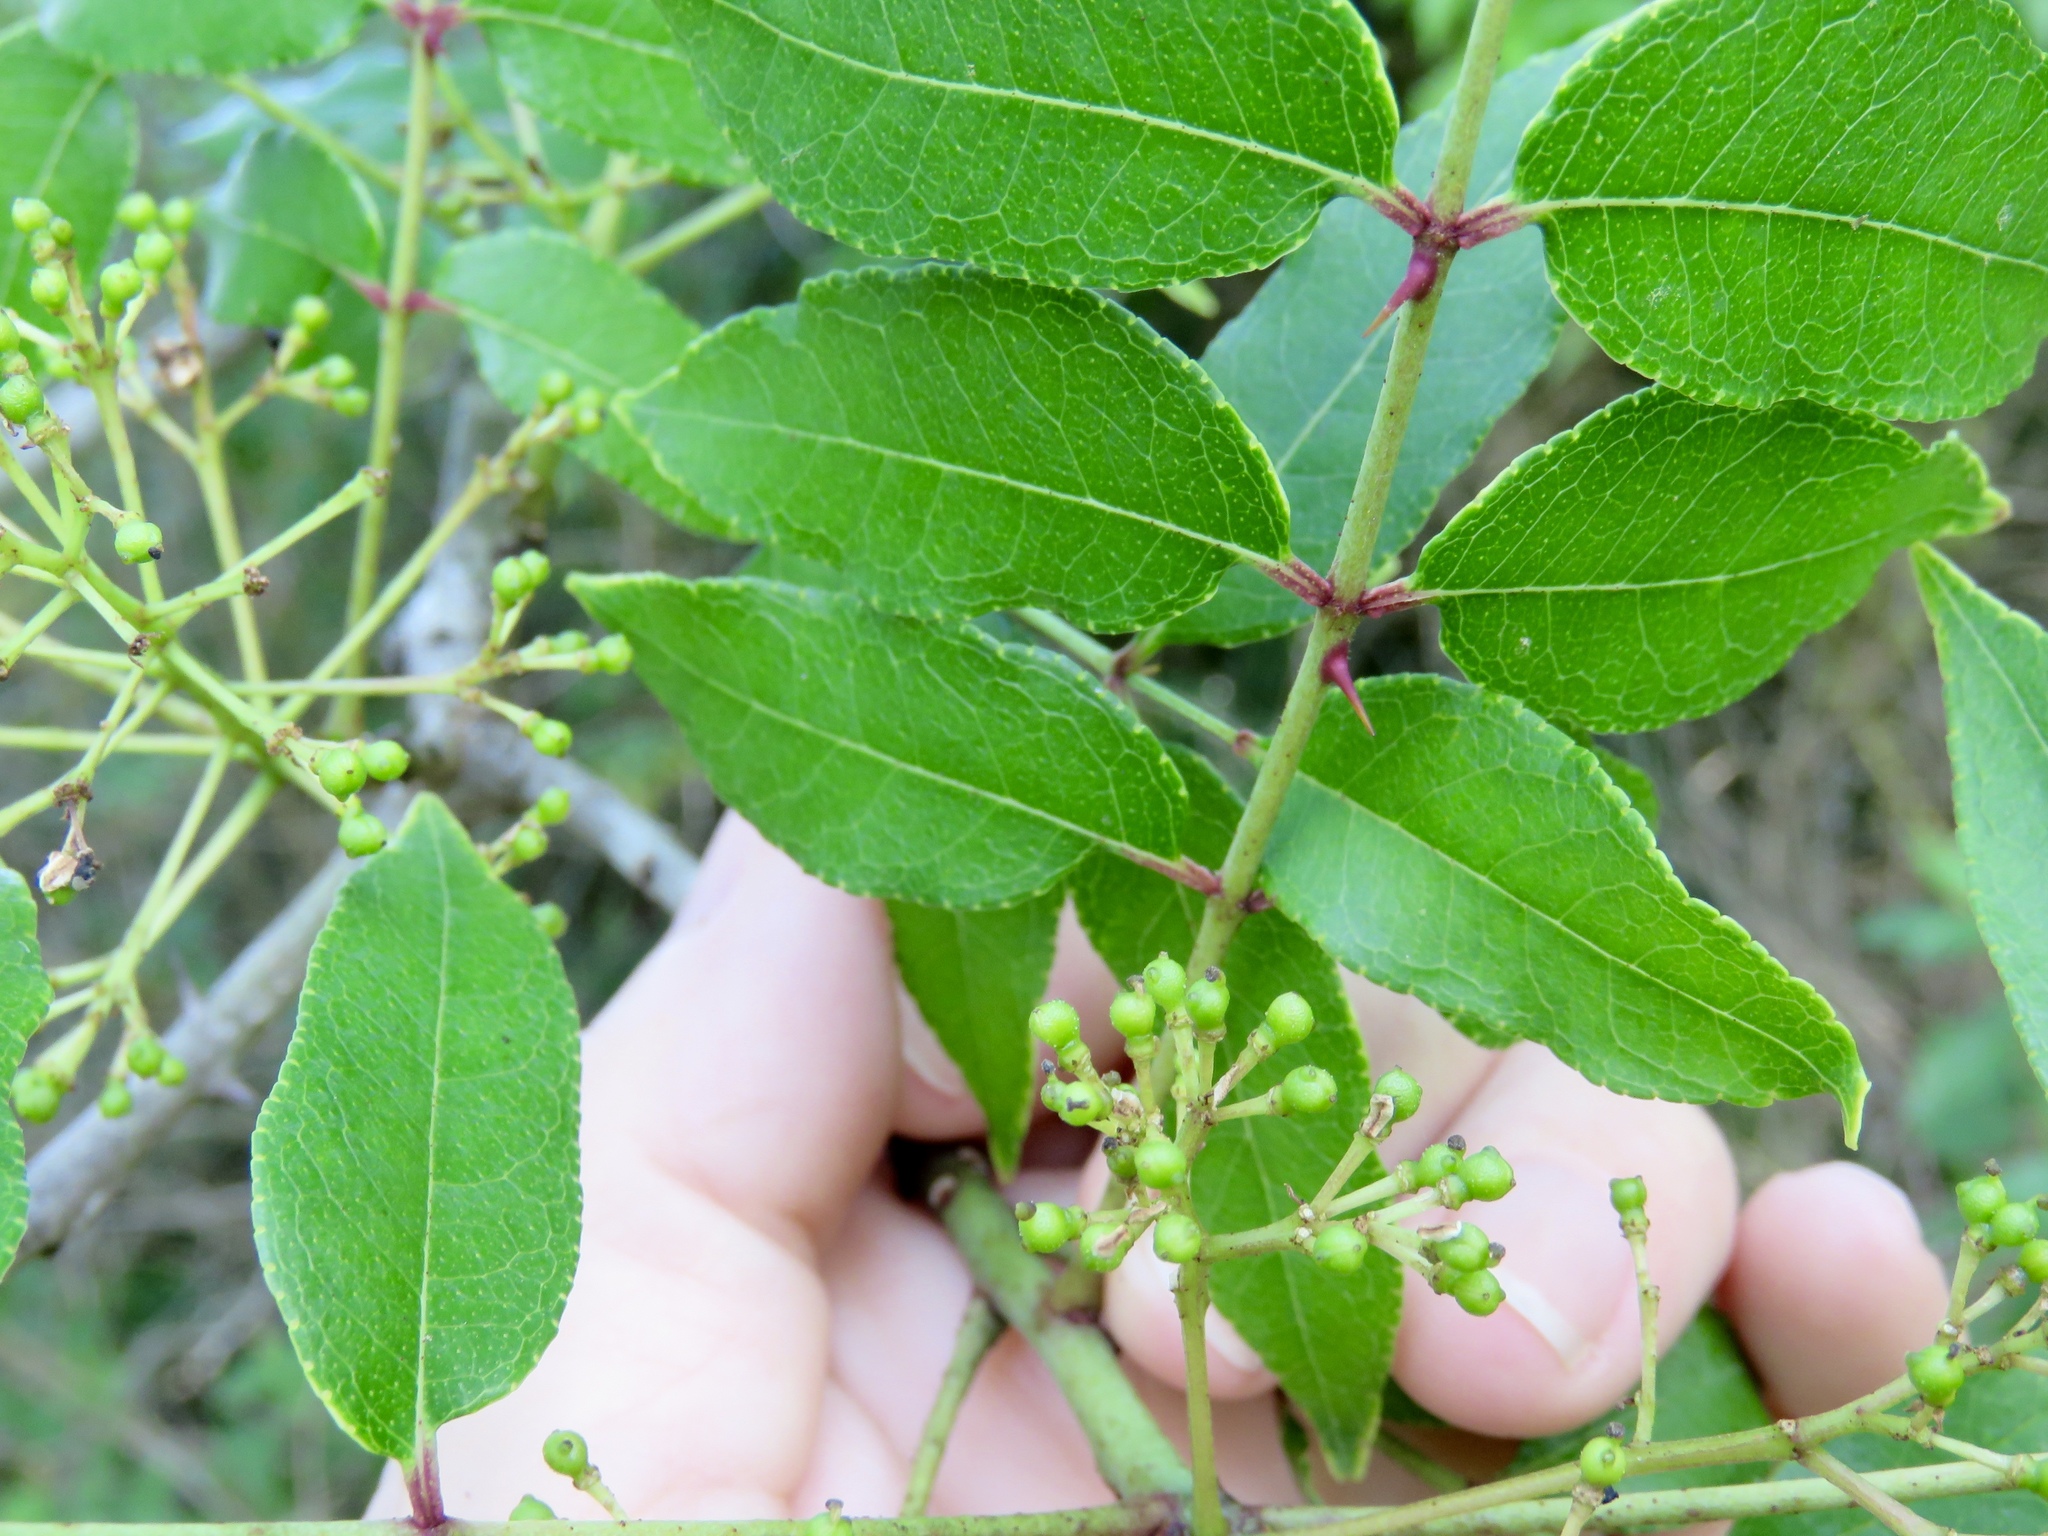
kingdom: Plantae
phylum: Tracheophyta
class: Magnoliopsida
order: Sapindales
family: Rutaceae
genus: Zanthoxylum
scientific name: Zanthoxylum clava-herculis
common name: Hercules'-club
